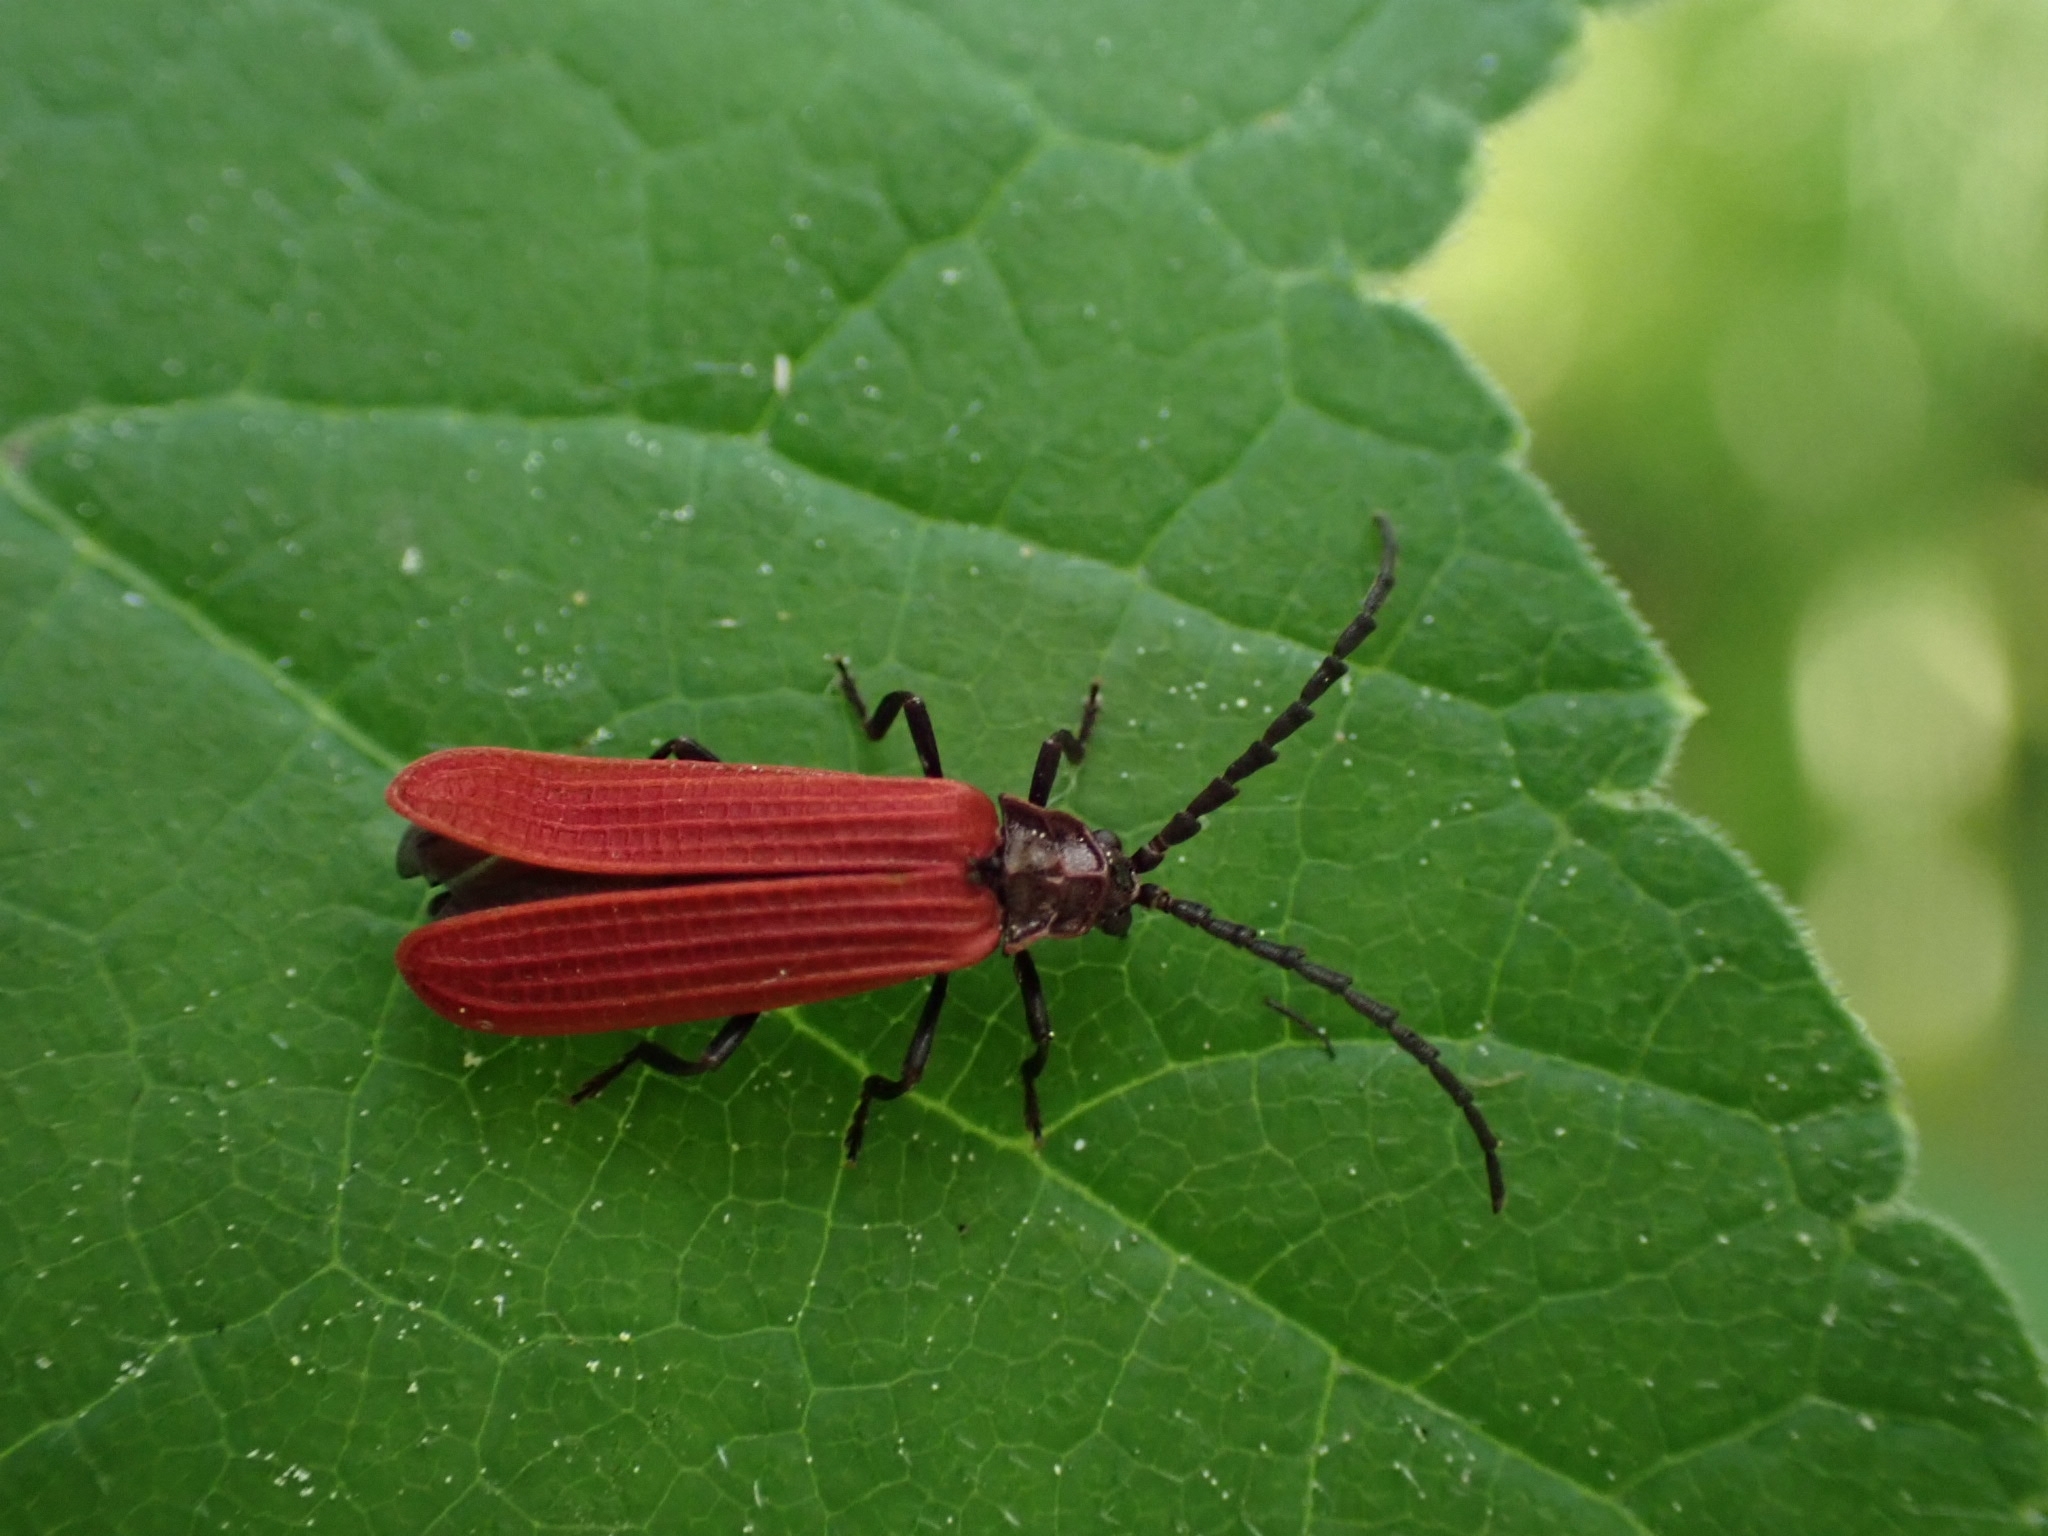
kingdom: Animalia
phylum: Arthropoda
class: Insecta
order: Coleoptera
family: Lycidae
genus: Xylobanellus
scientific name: Xylobanellus erythropterus
